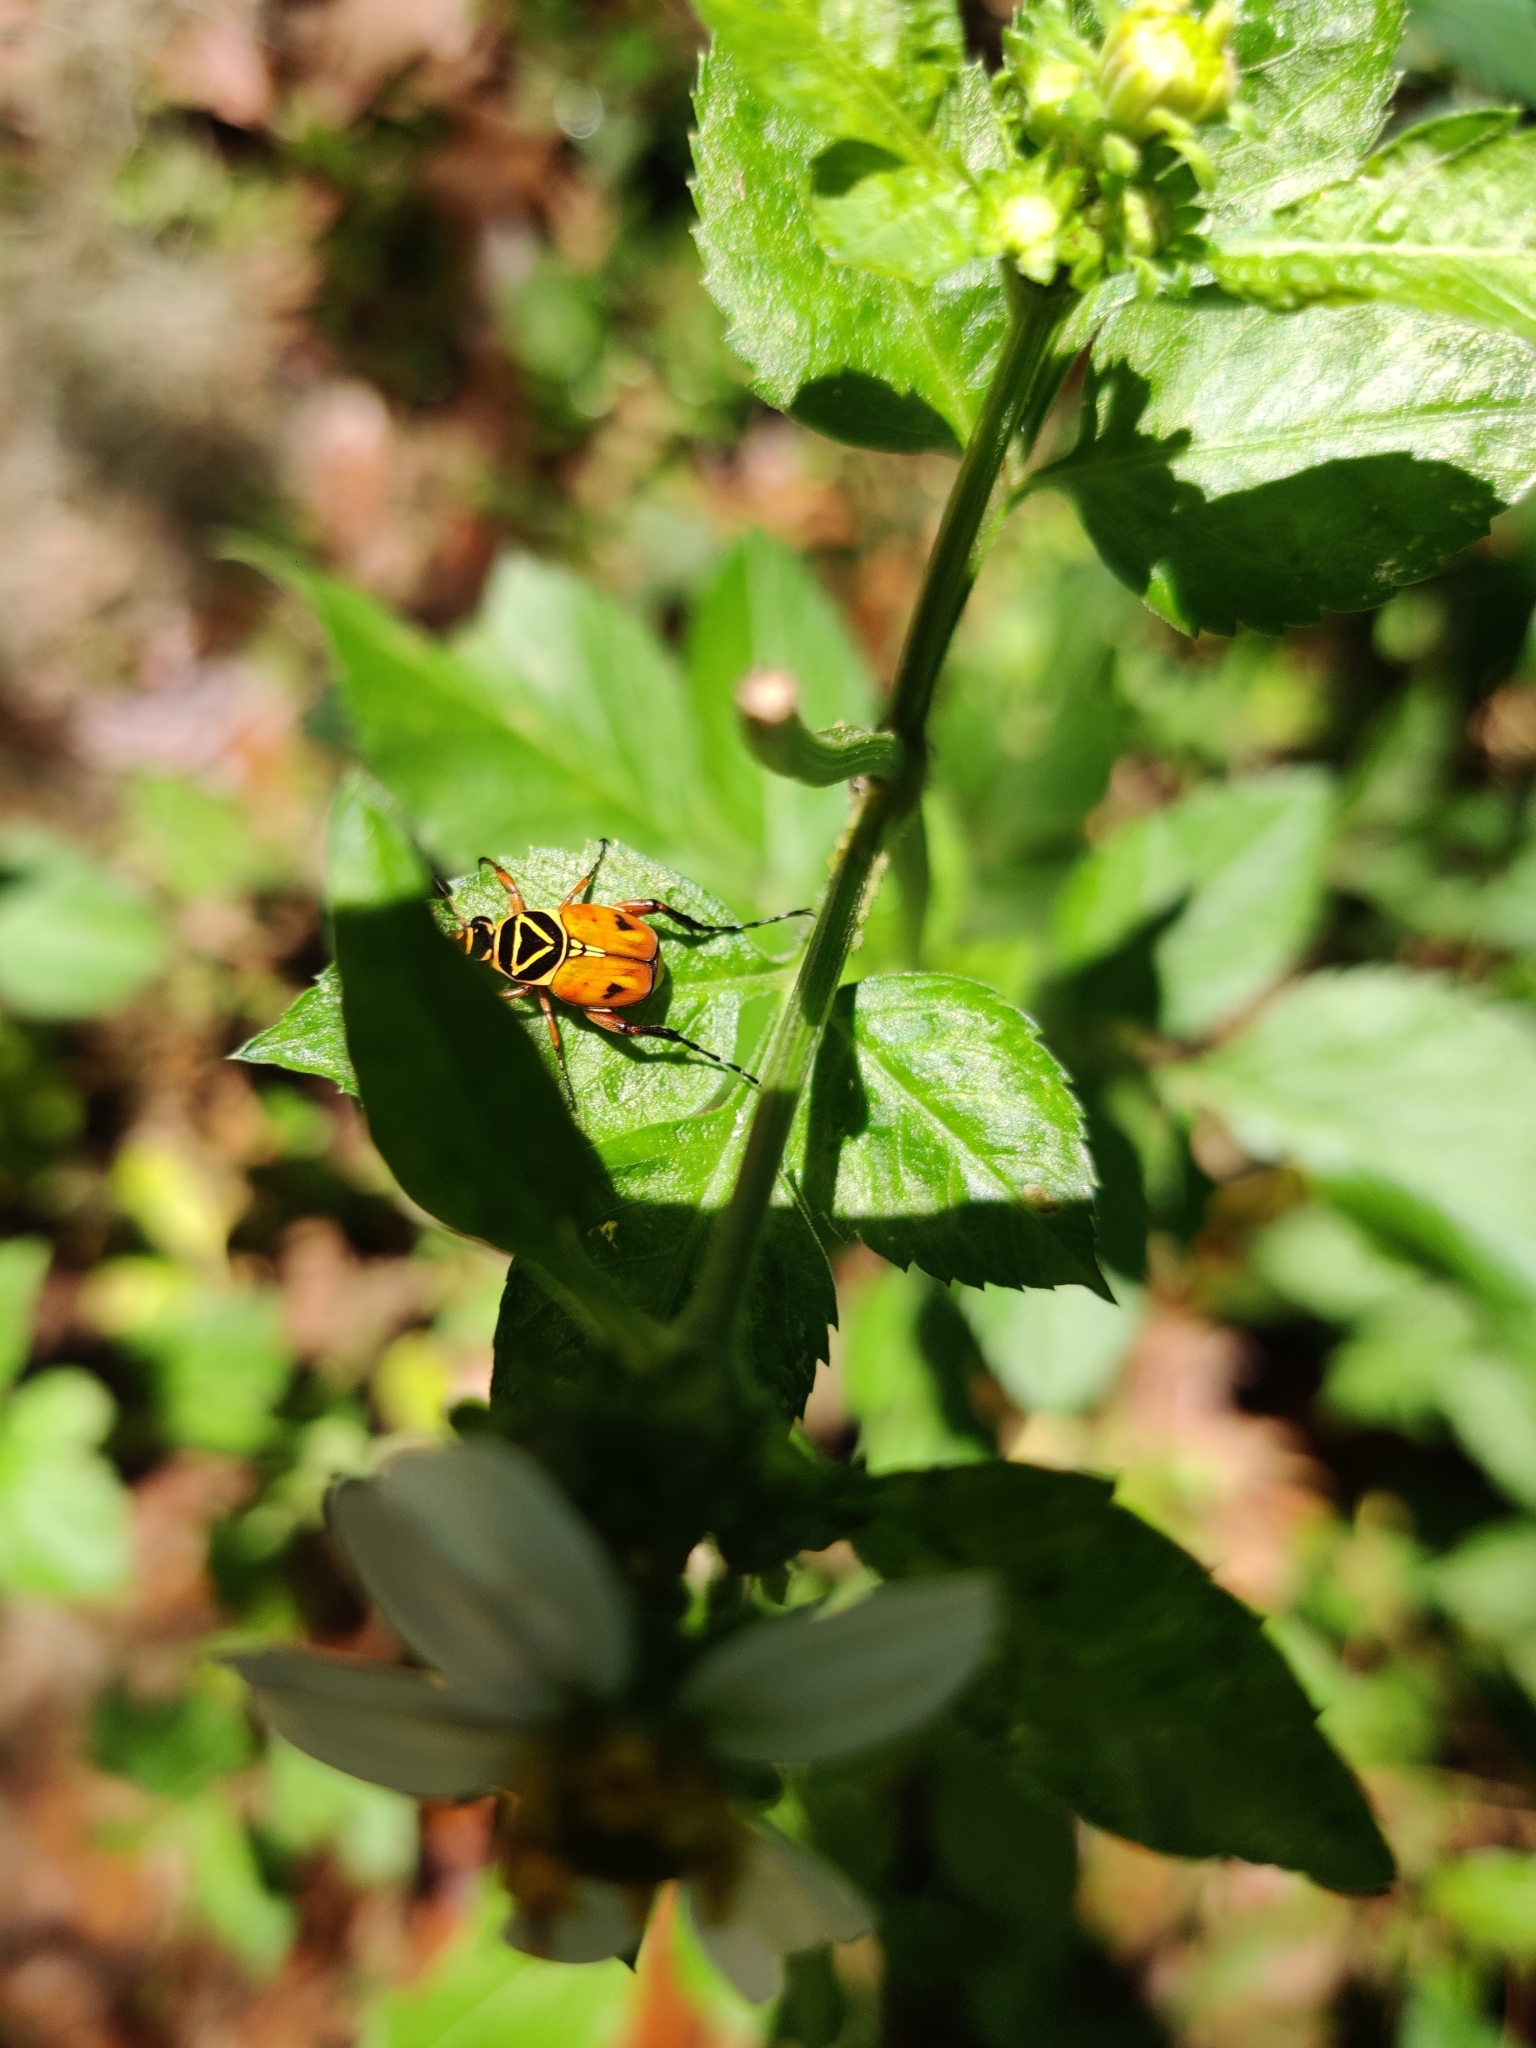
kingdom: Animalia
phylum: Arthropoda
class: Insecta
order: Coleoptera
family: Scarabaeidae
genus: Trigonopeltastes
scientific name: Trigonopeltastes delta
